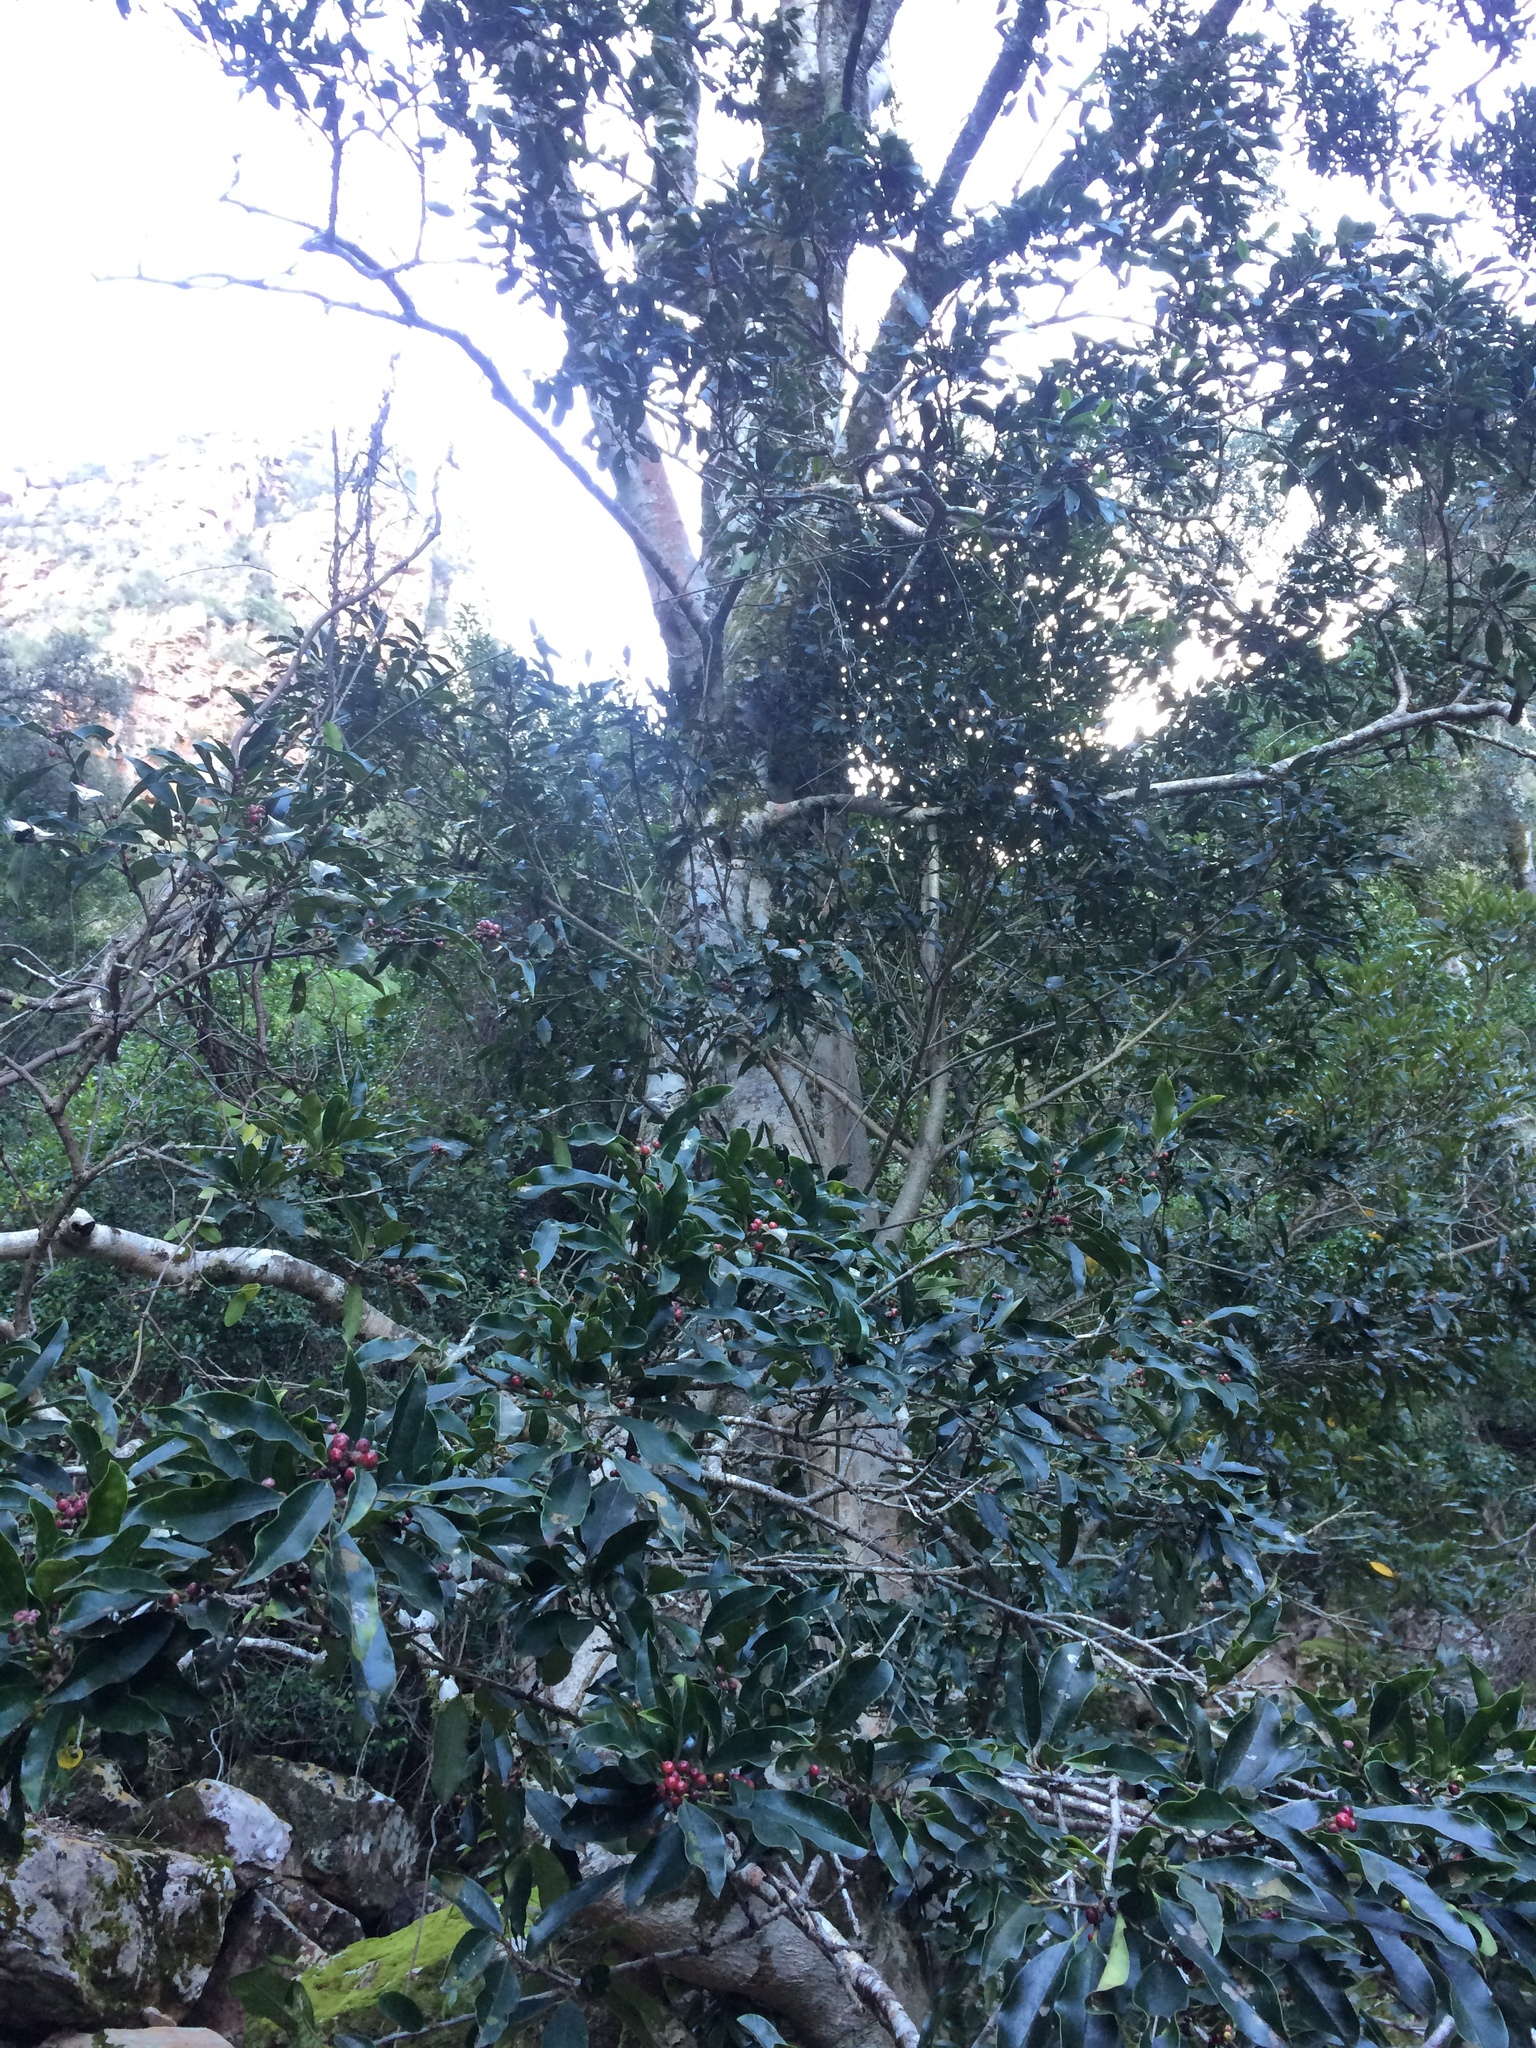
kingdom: Plantae
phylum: Tracheophyta
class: Magnoliopsida
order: Aquifoliales
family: Aquifoliaceae
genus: Ilex
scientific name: Ilex mitis
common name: African holly
